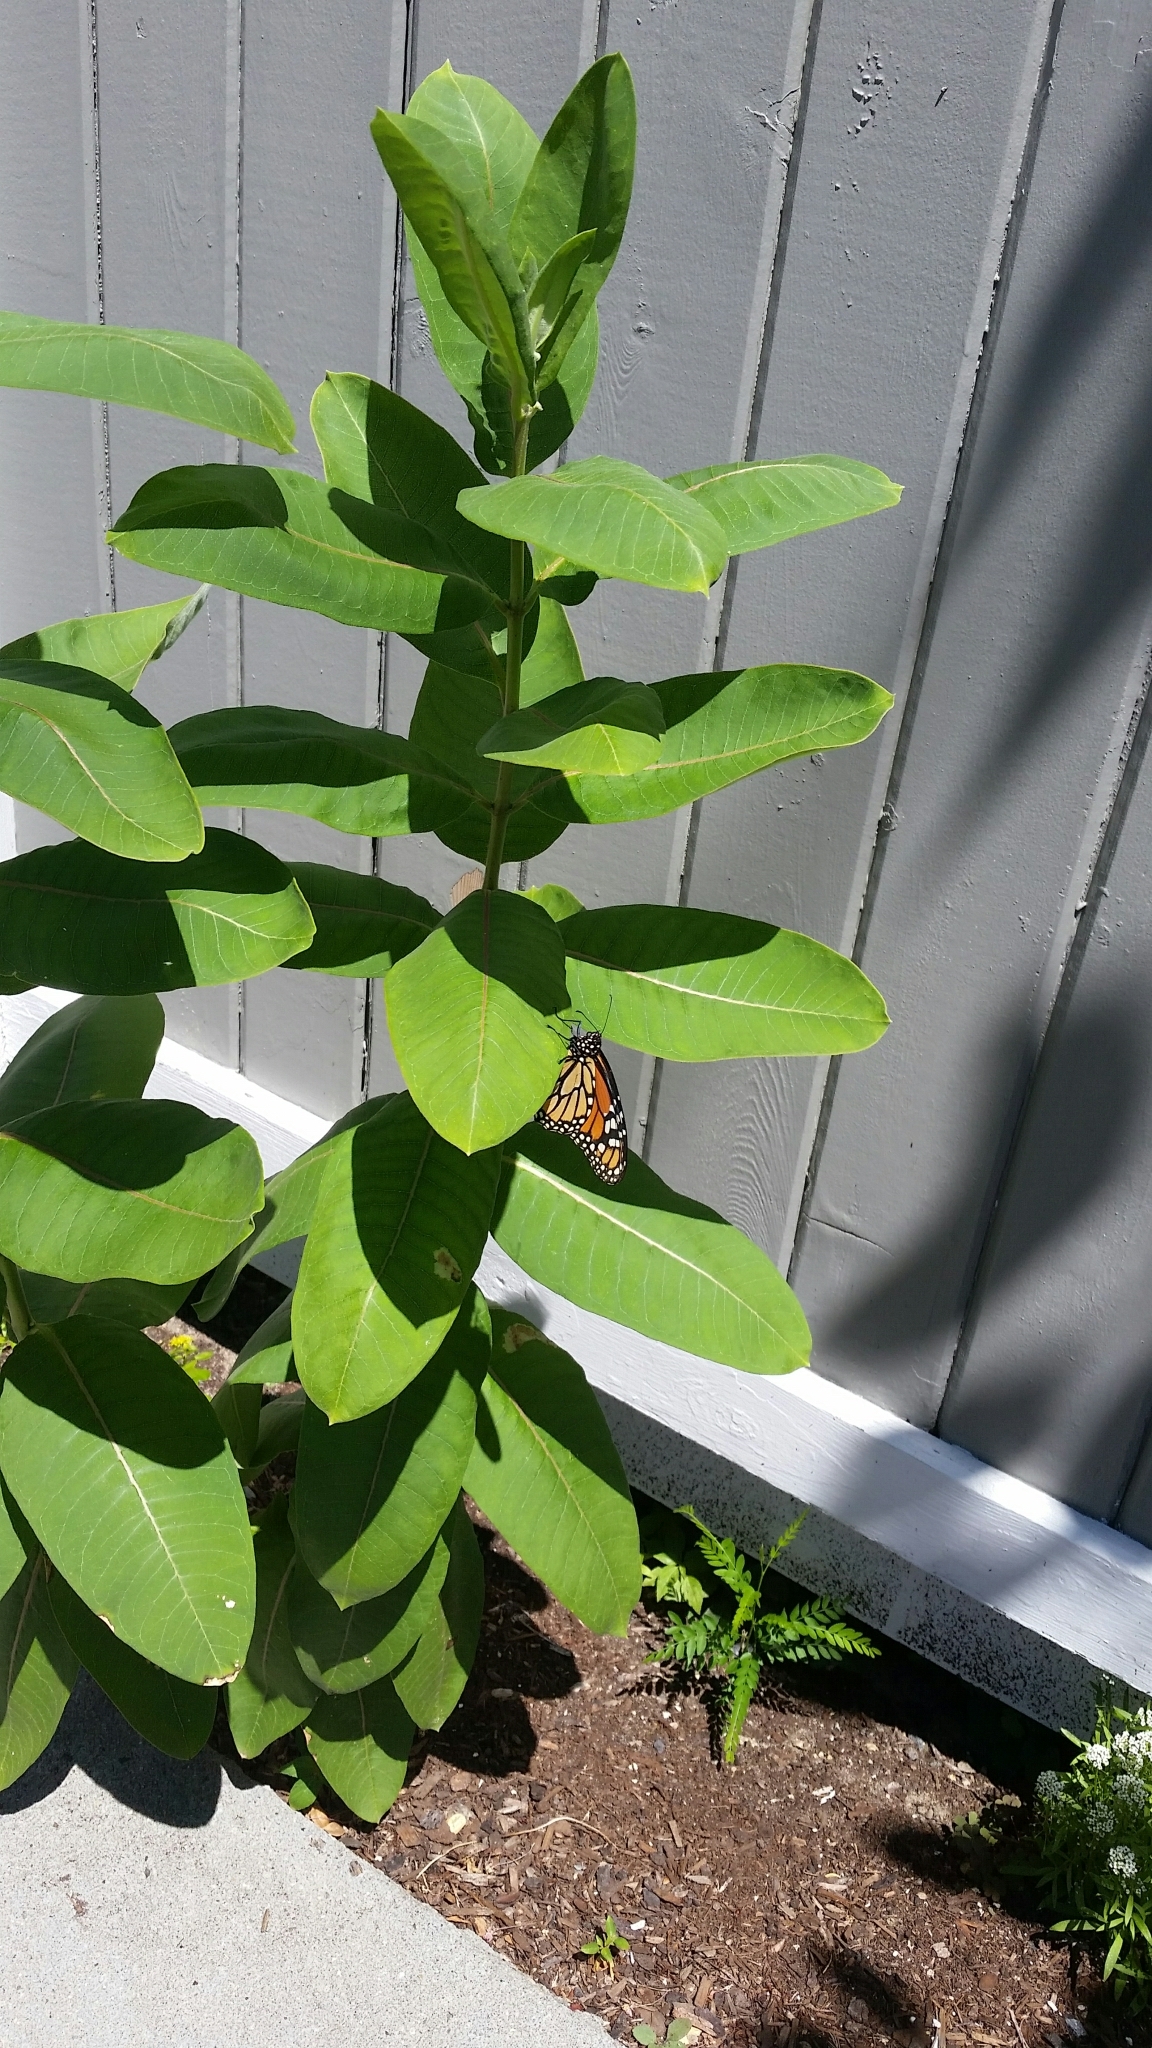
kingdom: Animalia
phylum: Arthropoda
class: Insecta
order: Lepidoptera
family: Nymphalidae
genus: Danaus
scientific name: Danaus plexippus
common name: Monarch
